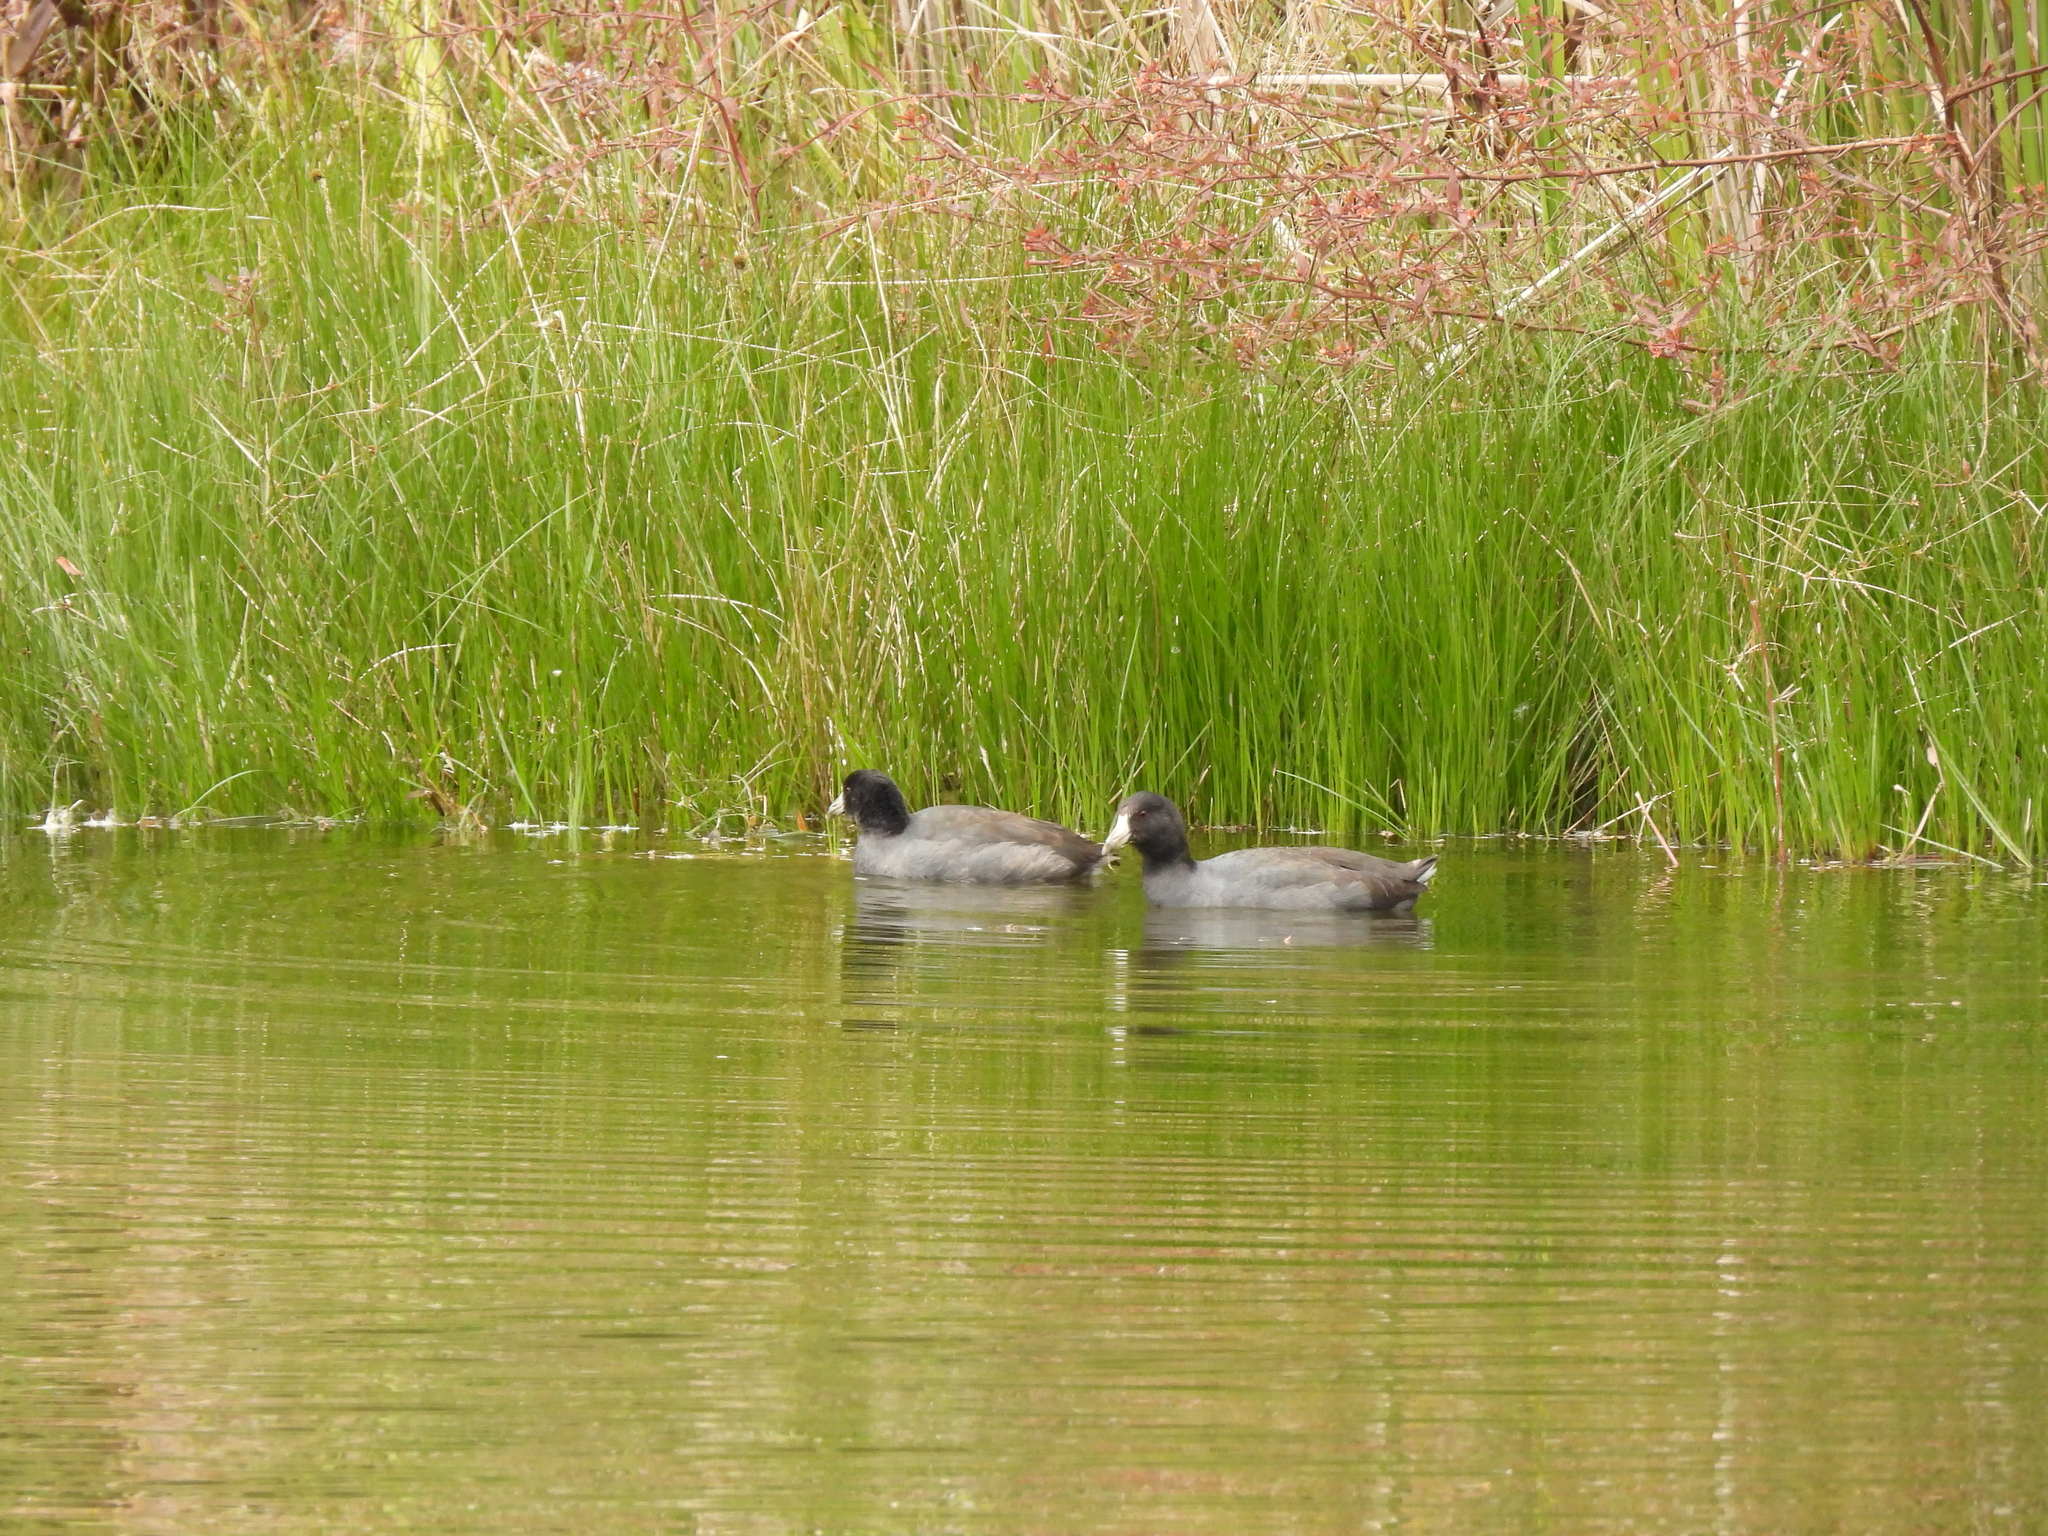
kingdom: Animalia
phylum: Chordata
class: Aves
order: Gruiformes
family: Rallidae
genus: Fulica
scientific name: Fulica americana
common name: American coot
